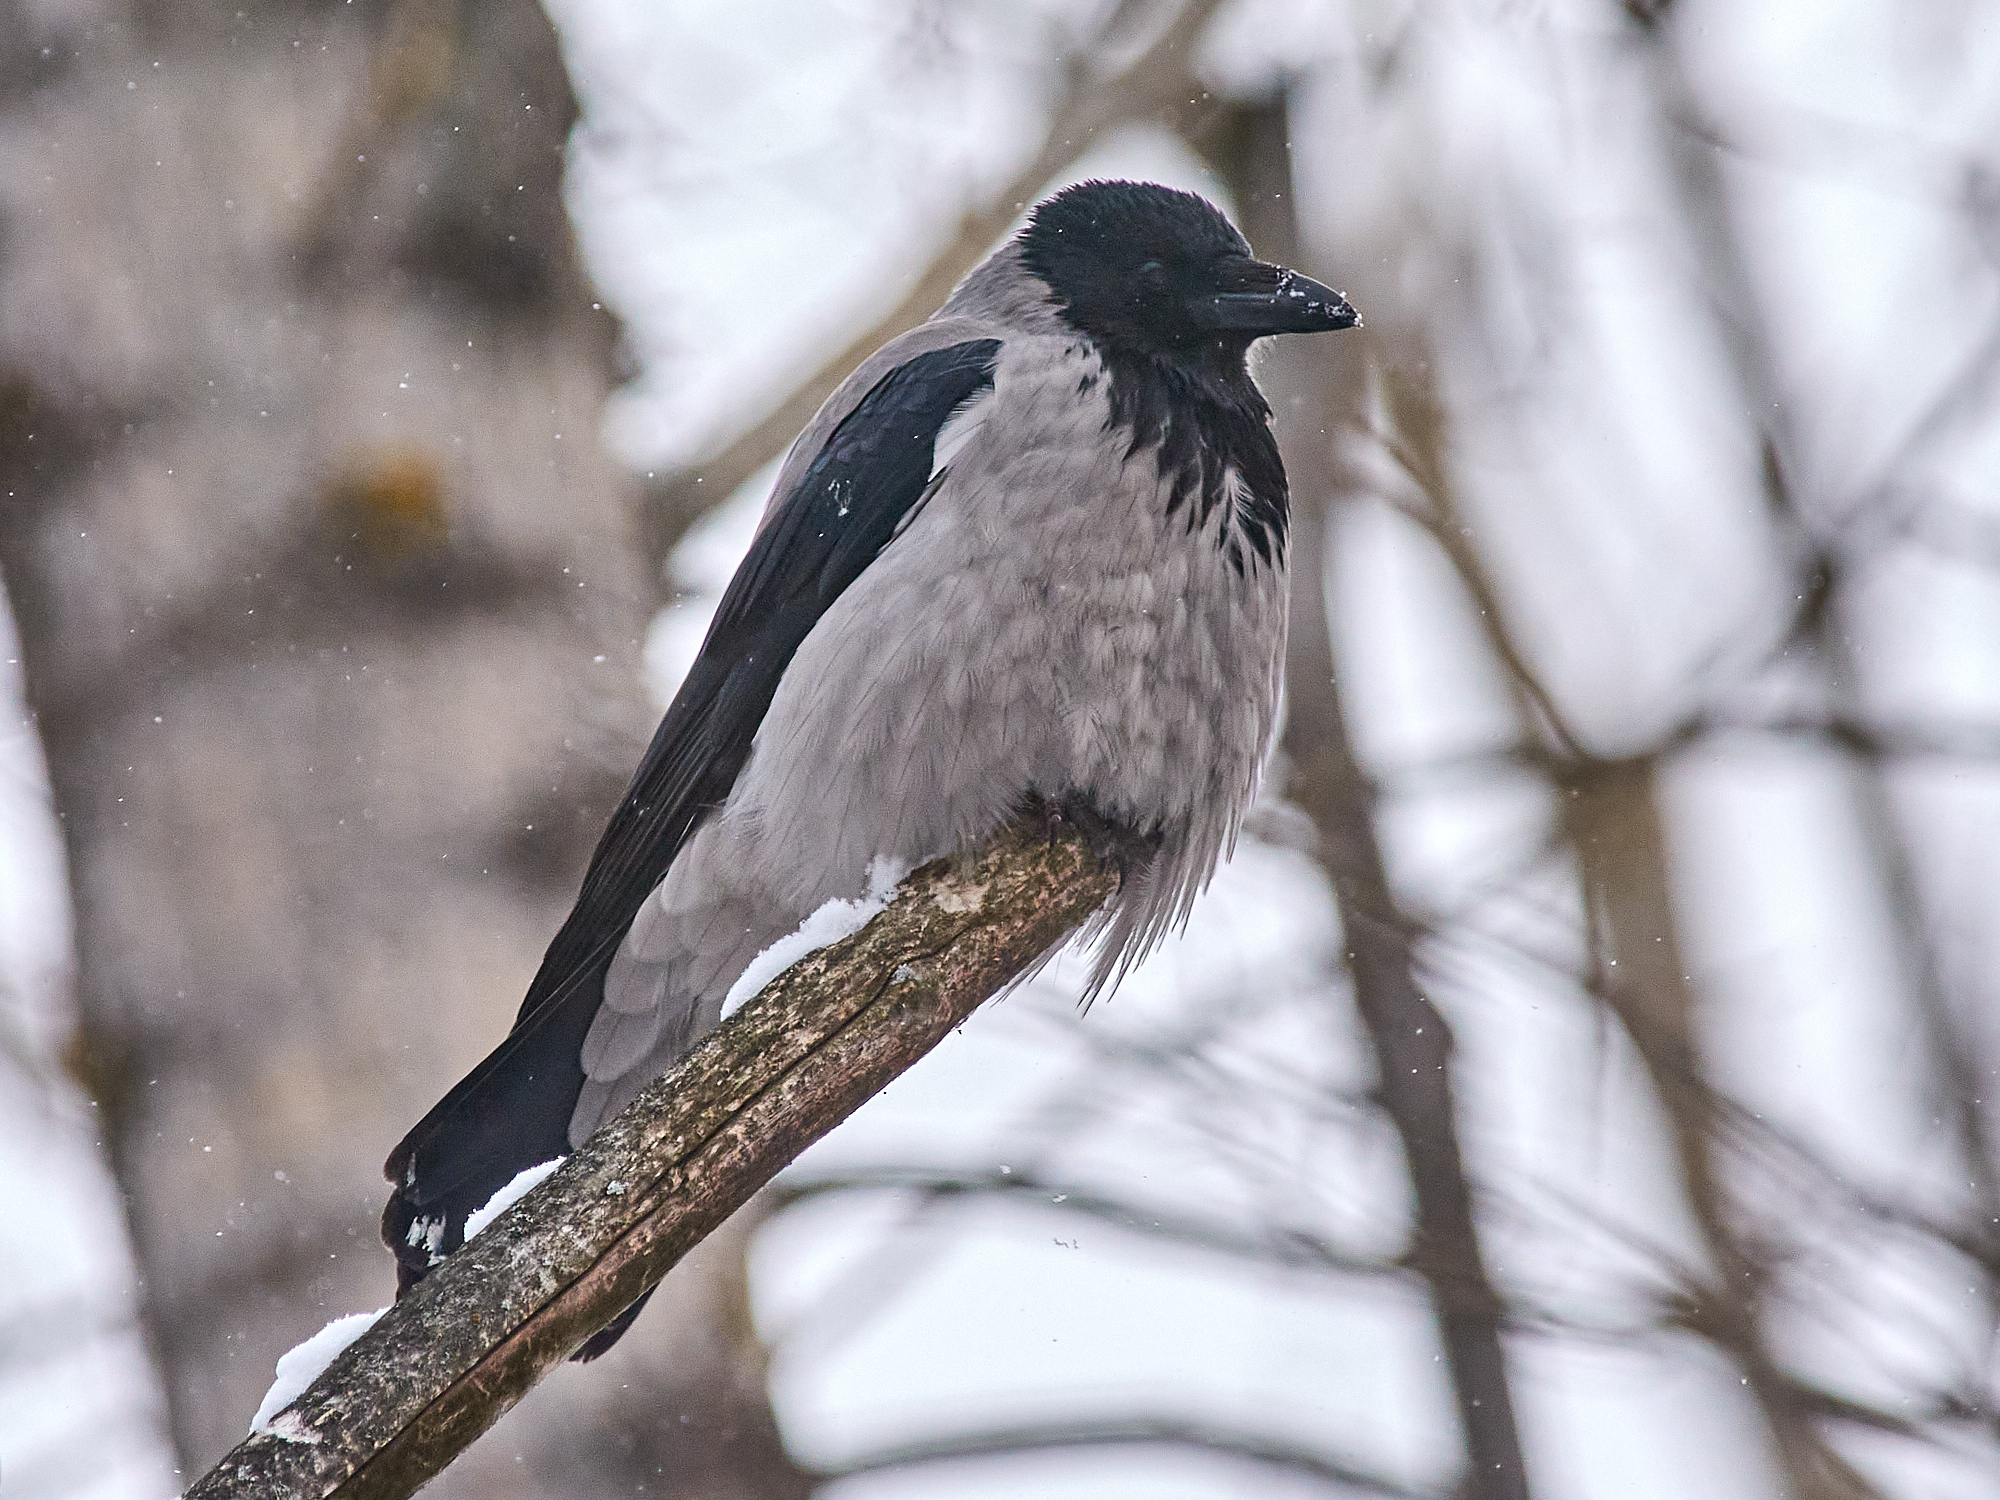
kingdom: Animalia
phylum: Chordata
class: Aves
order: Passeriformes
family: Corvidae
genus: Corvus
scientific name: Corvus cornix
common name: Hooded crow
